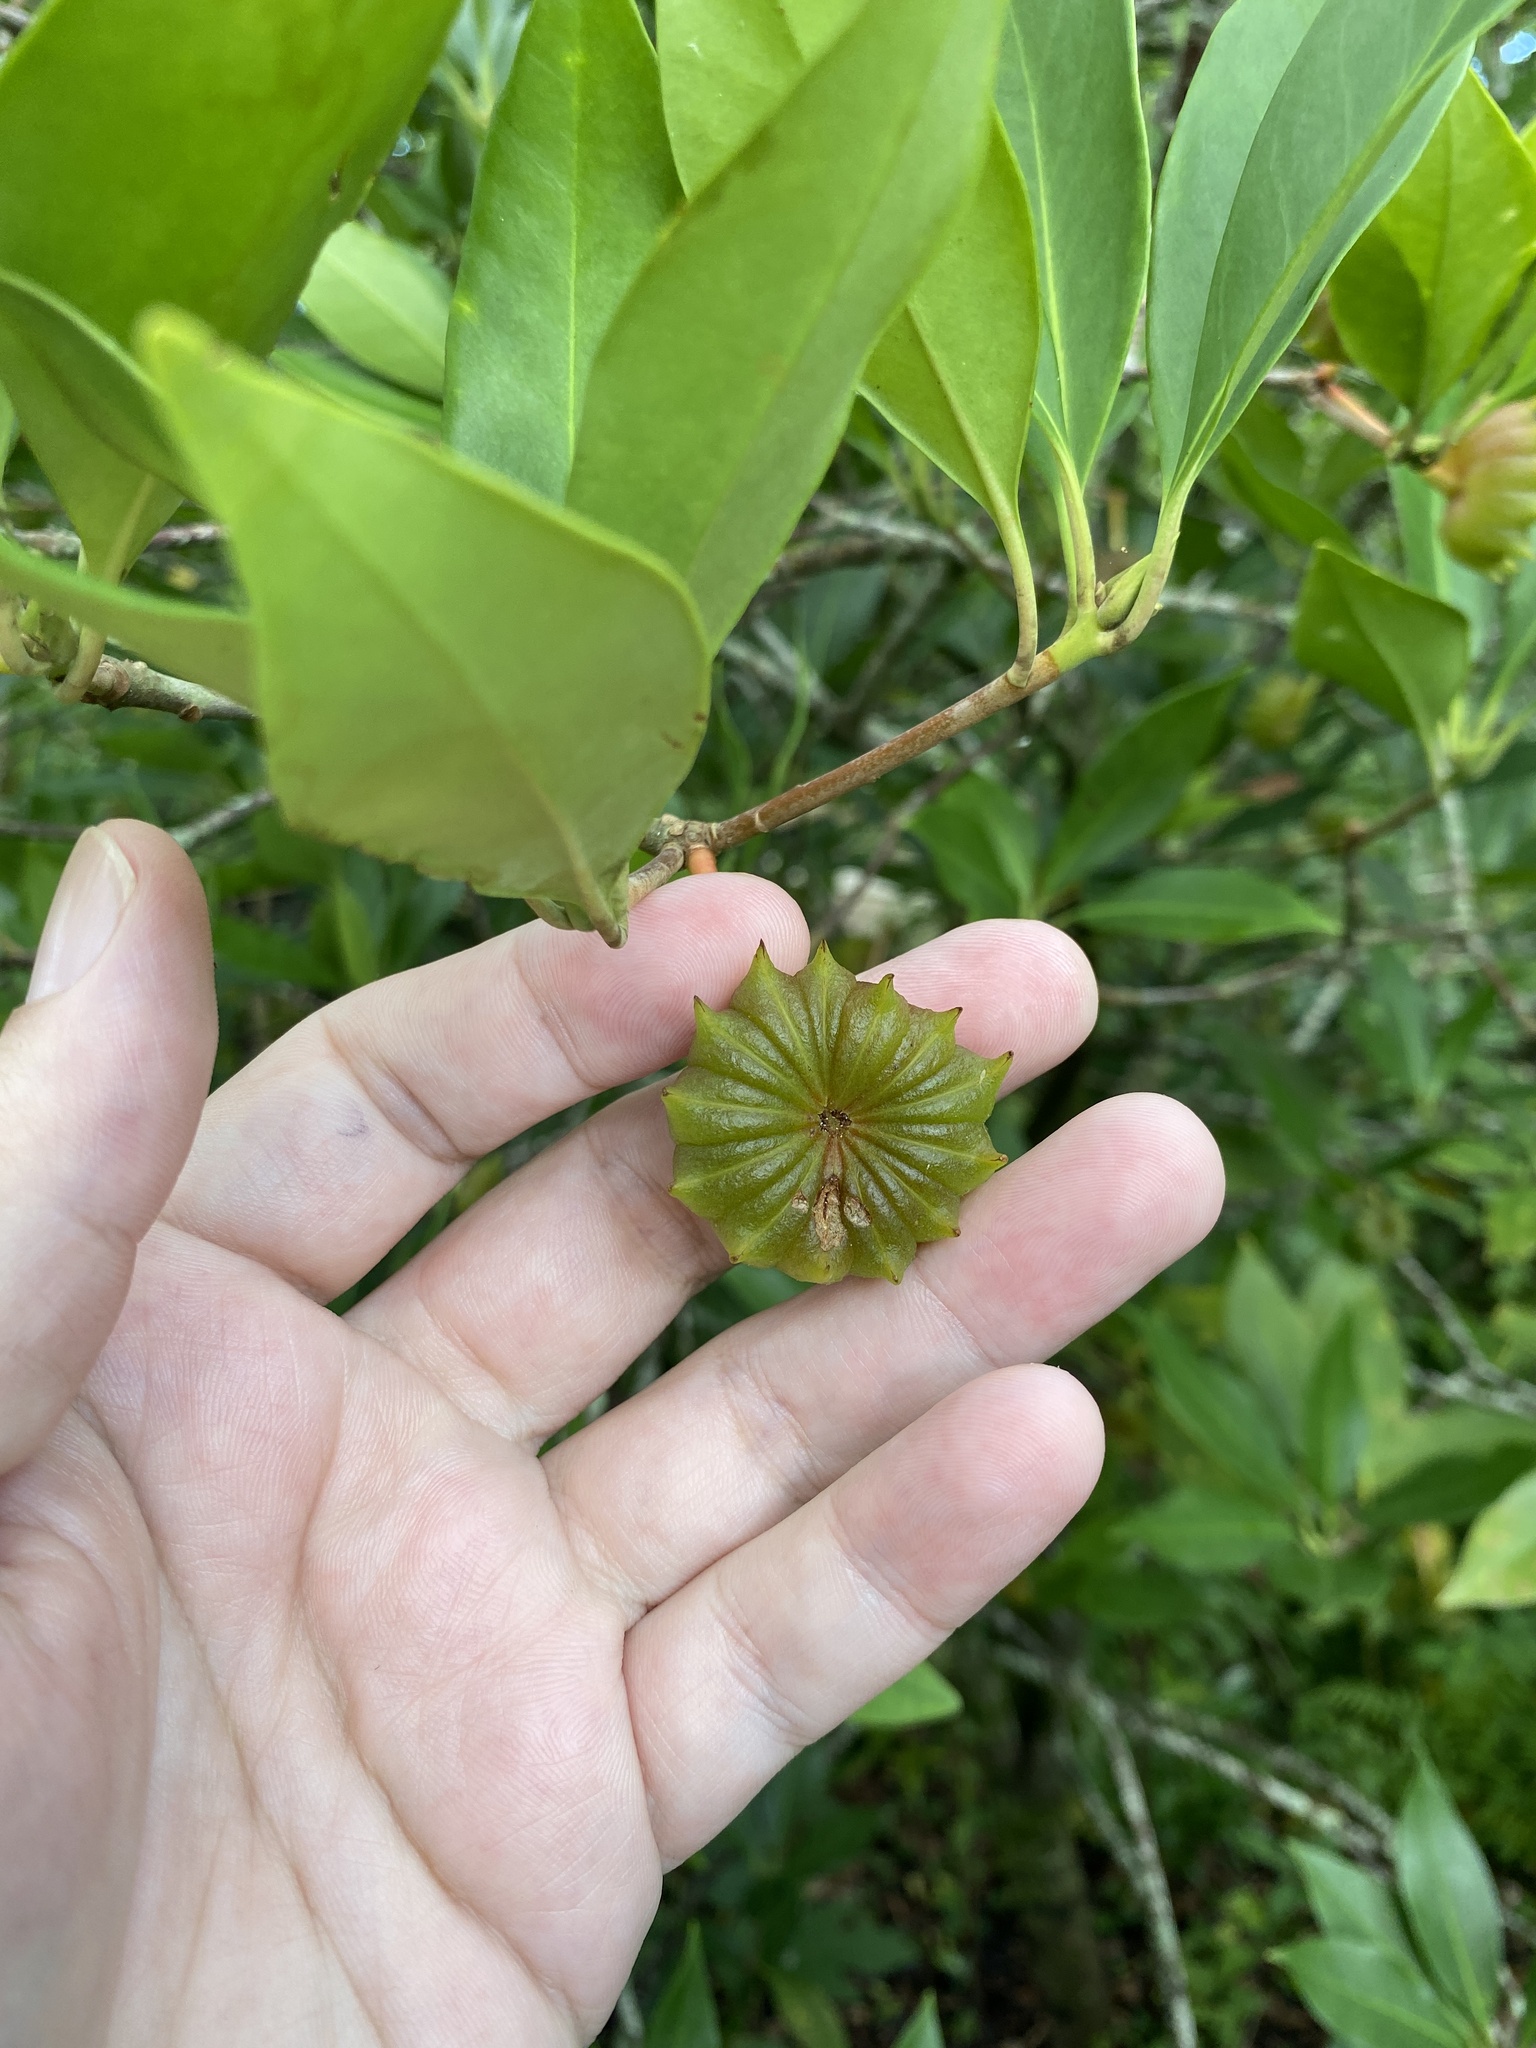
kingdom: Plantae
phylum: Tracheophyta
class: Magnoliopsida
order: Austrobaileyales
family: Schisandraceae
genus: Illicium
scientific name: Illicium floridanum
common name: Florida anisetree
